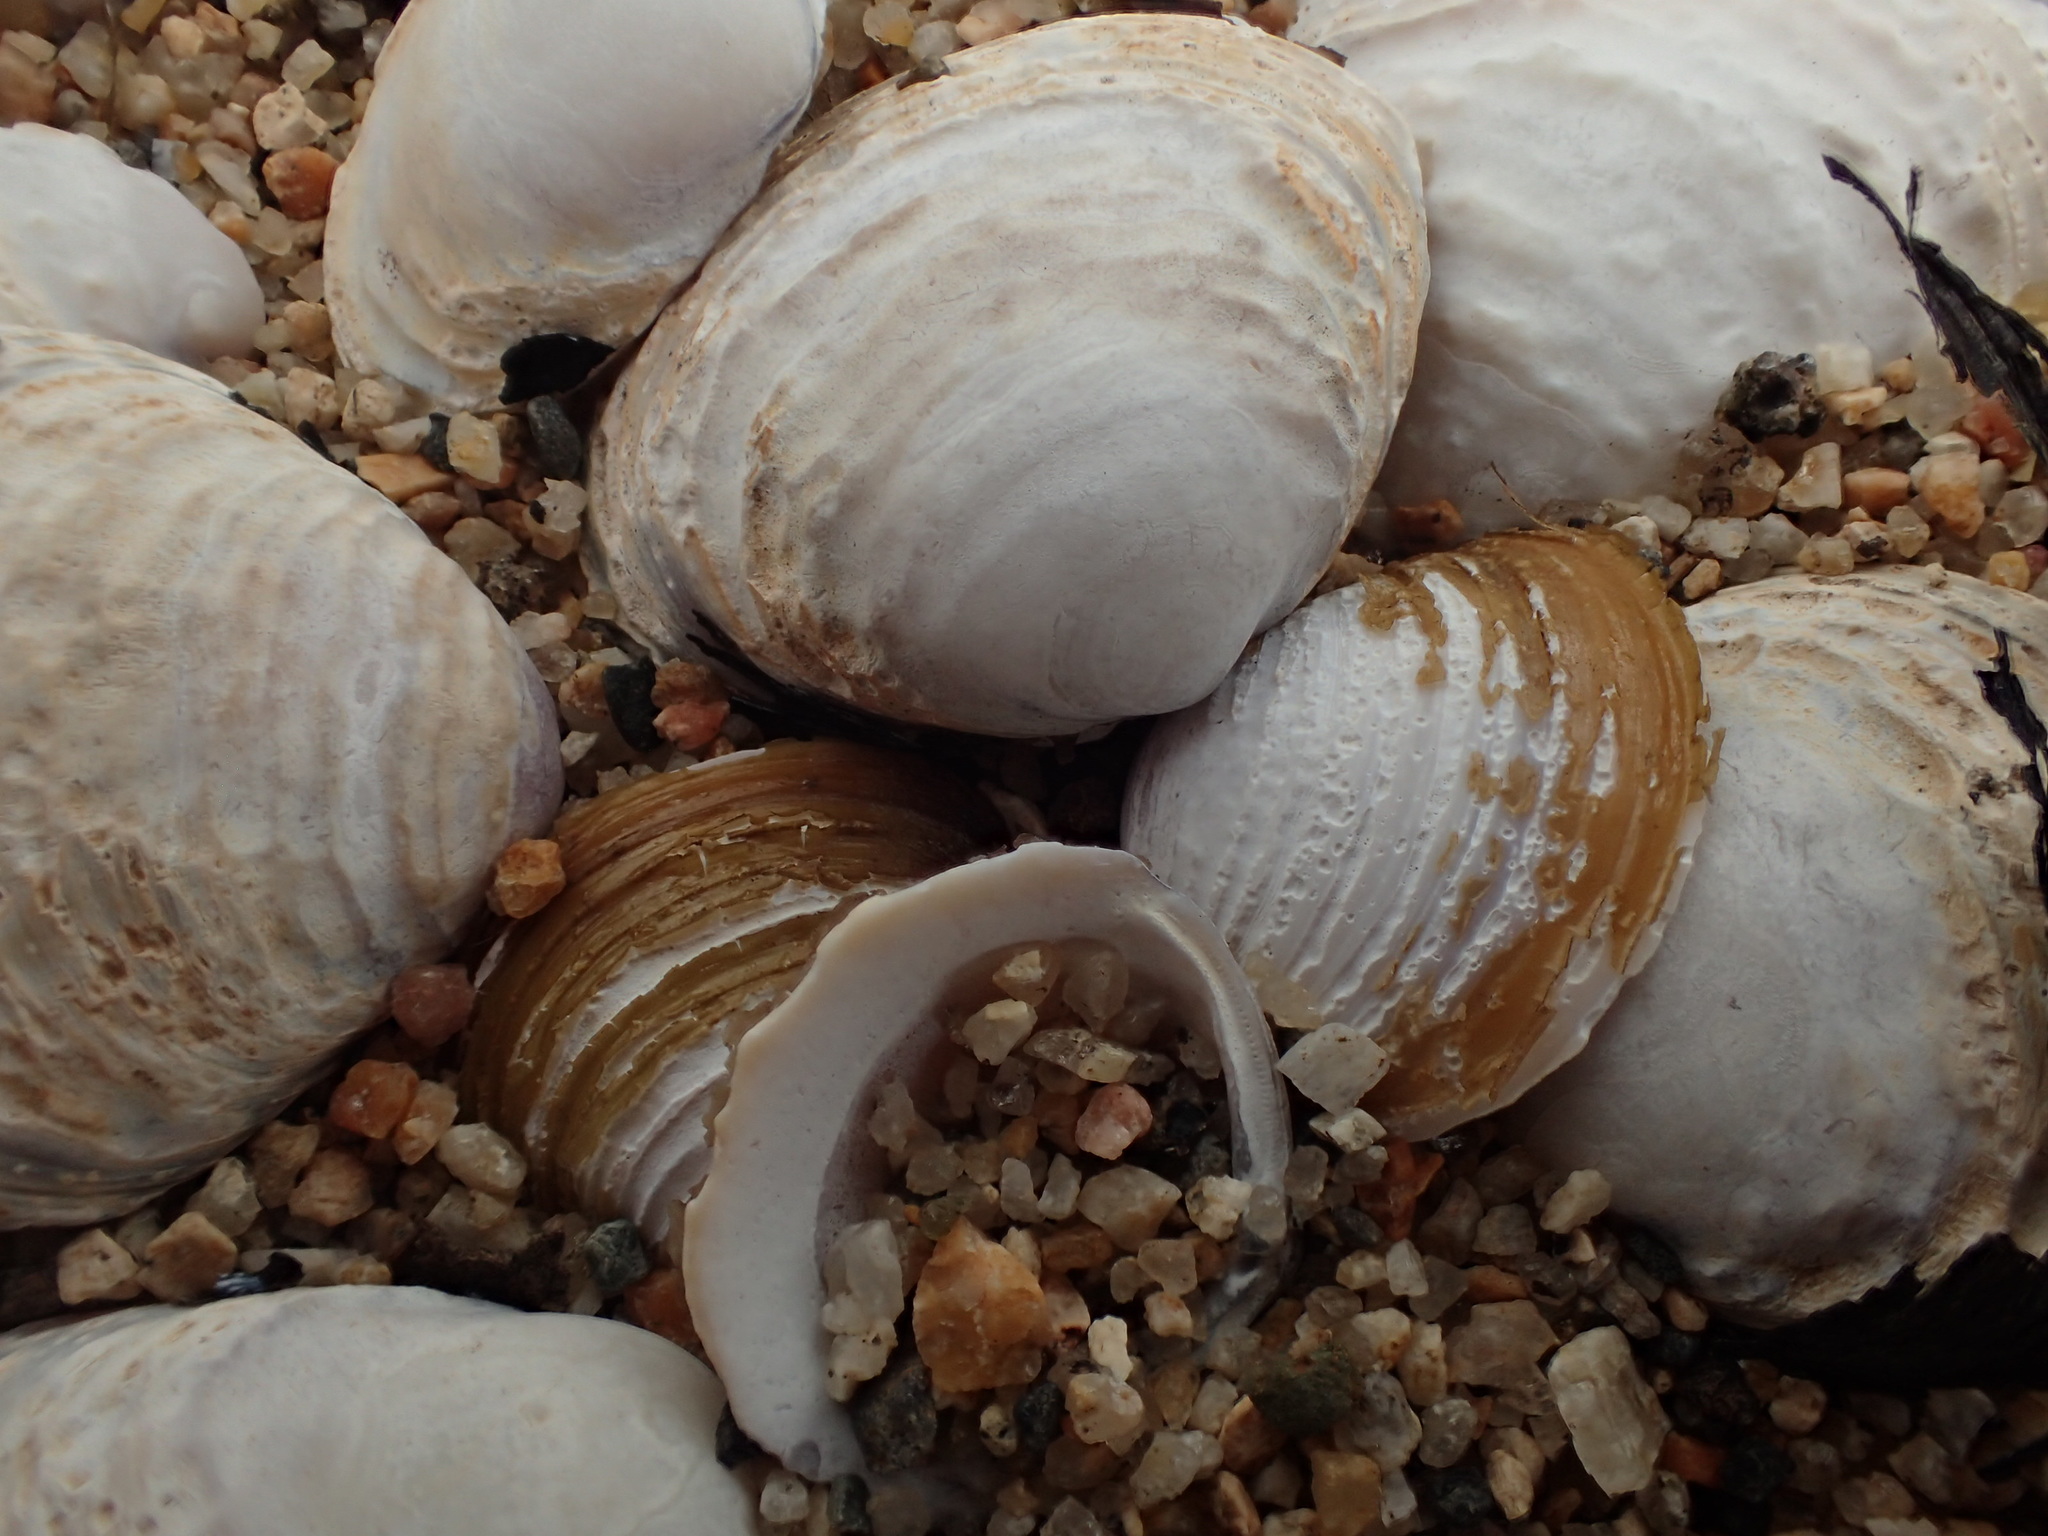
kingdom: Animalia
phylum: Mollusca
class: Bivalvia
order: Venerida
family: Cyrenidae
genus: Corbicula
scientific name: Corbicula fluminea
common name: Asian clam
